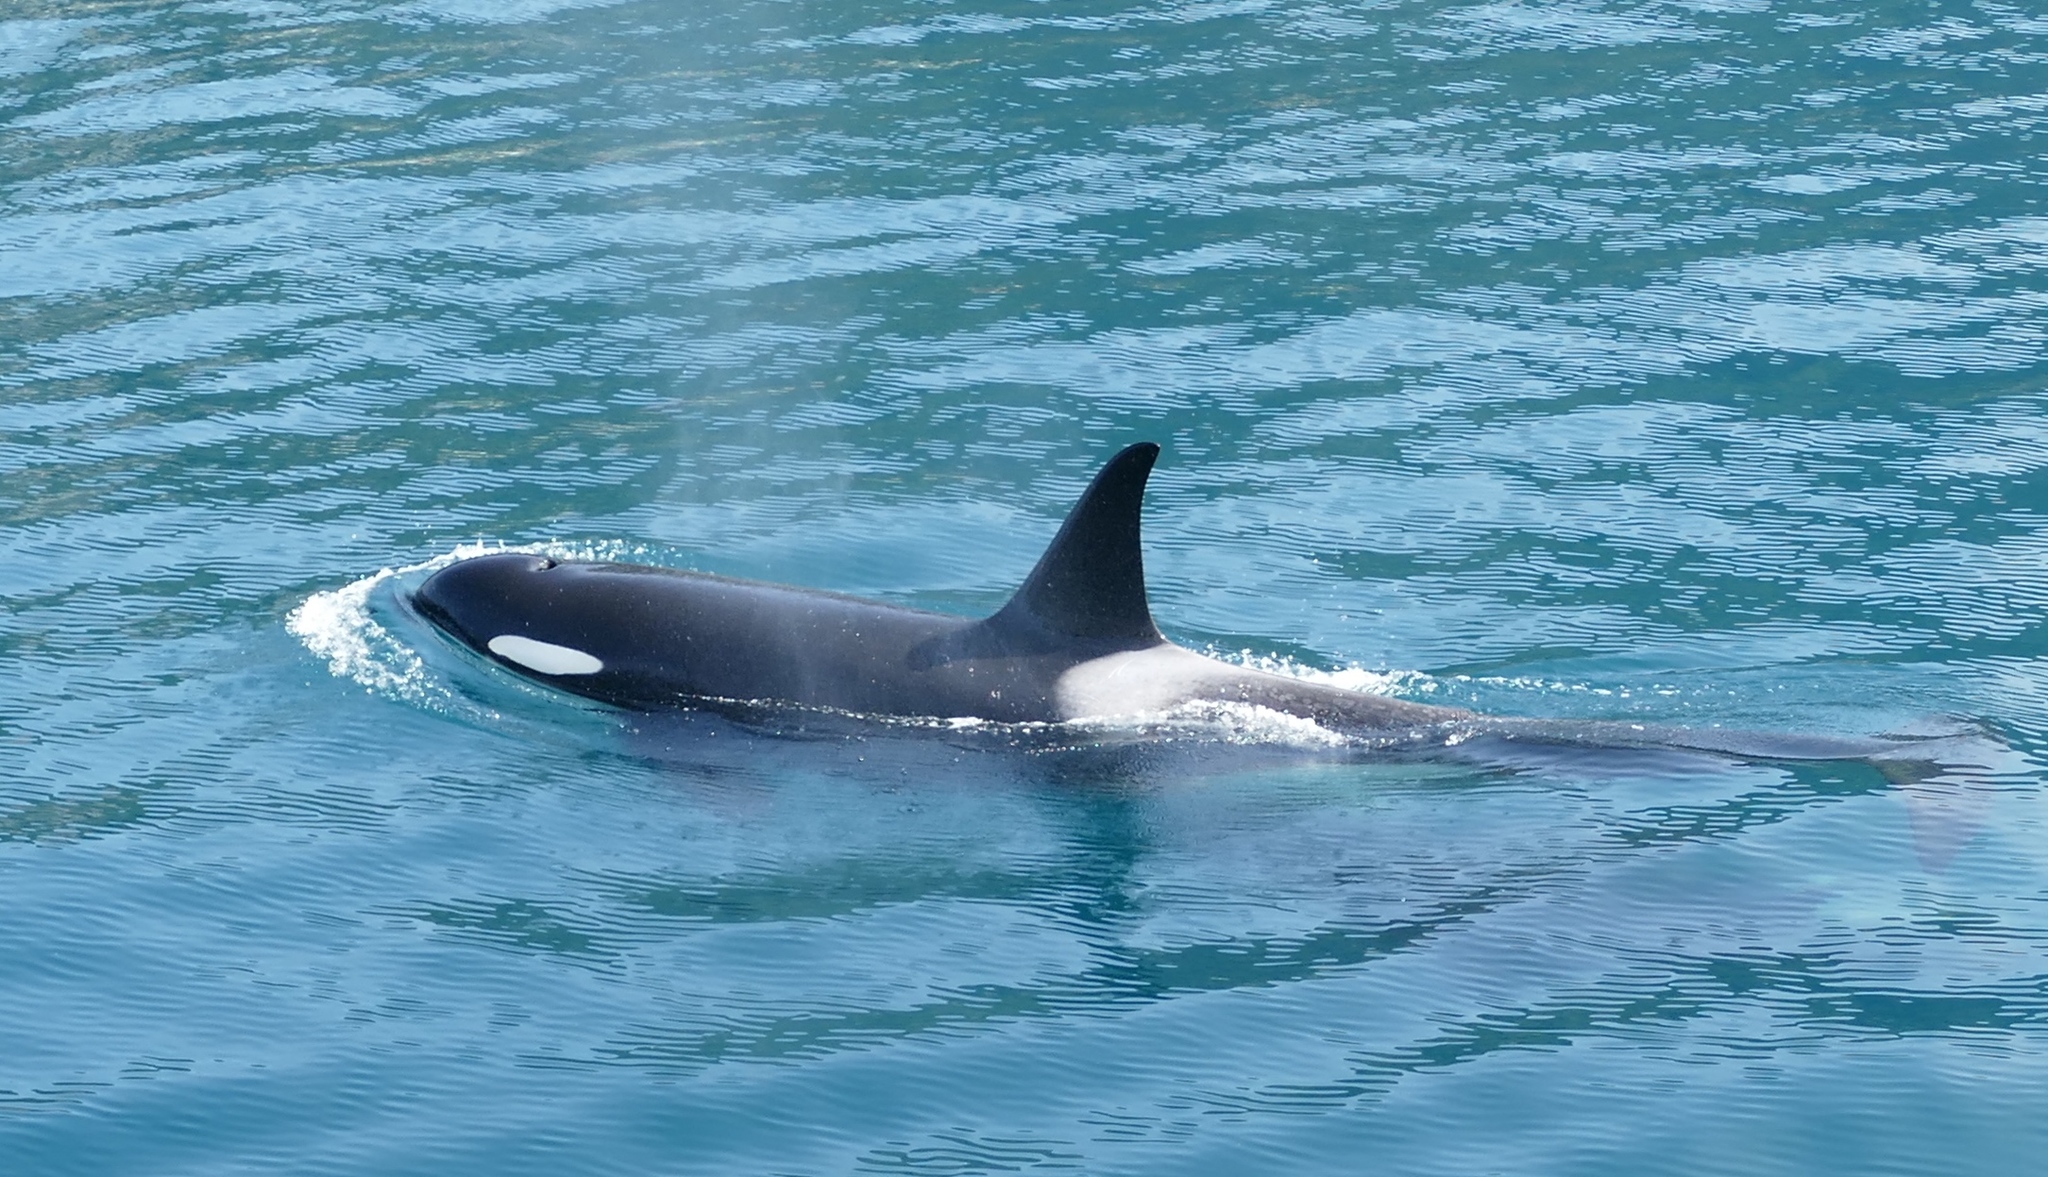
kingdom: Animalia
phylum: Chordata
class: Mammalia
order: Cetacea
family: Delphinidae
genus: Orcinus
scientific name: Orcinus orca
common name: Killer whale
